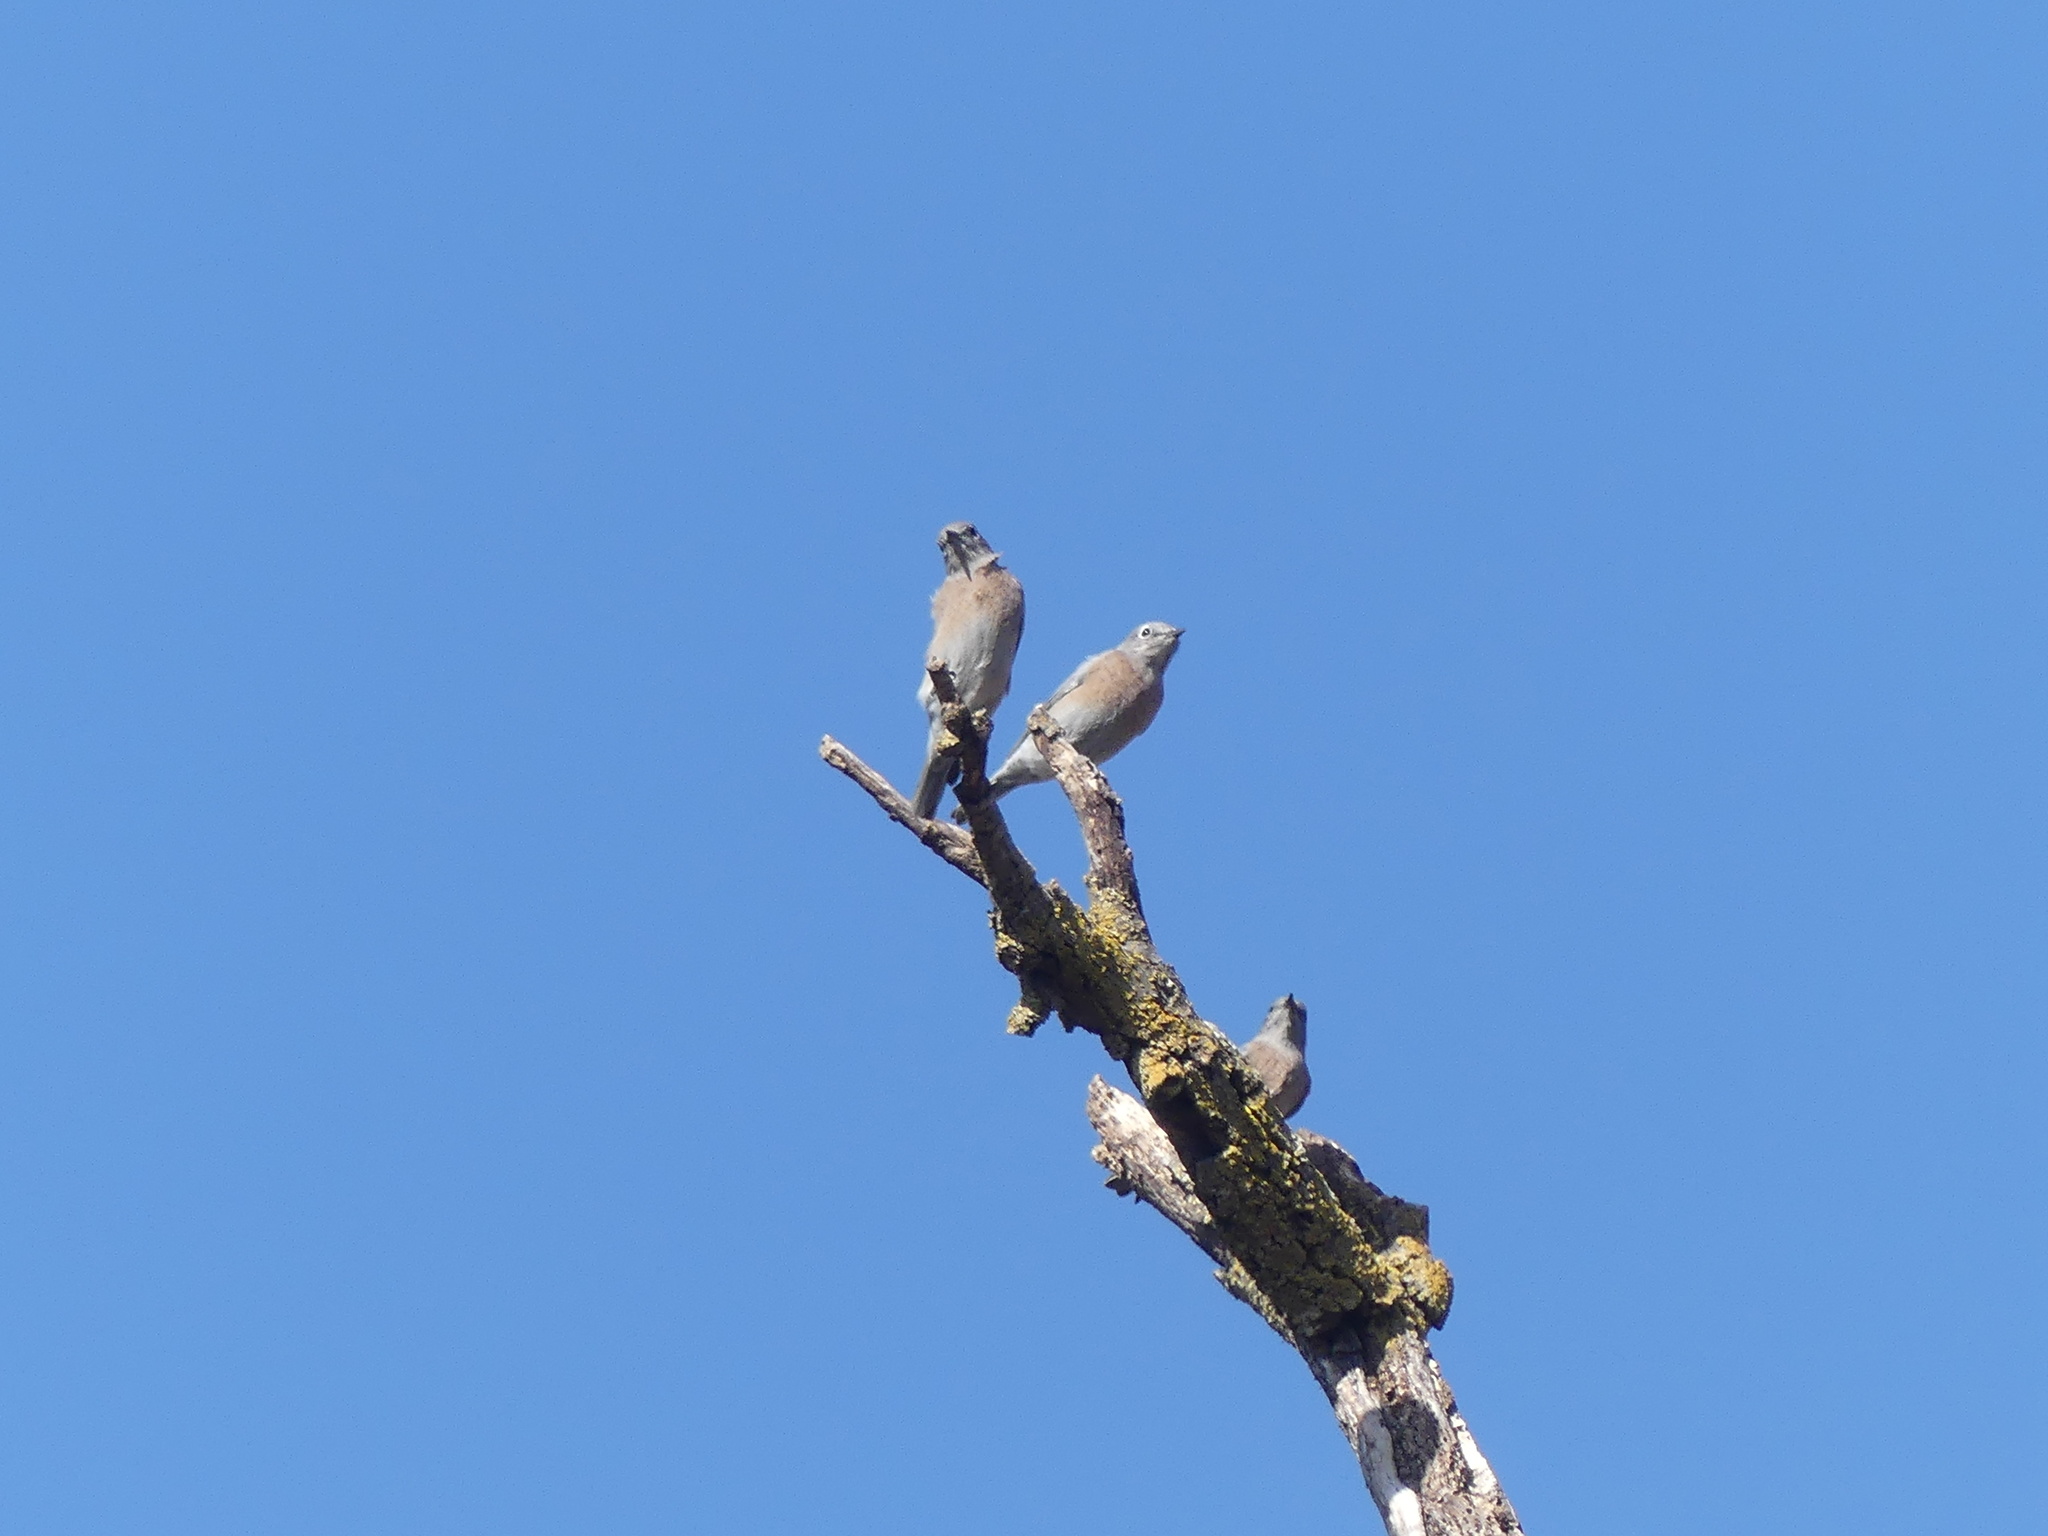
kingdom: Animalia
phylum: Chordata
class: Aves
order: Passeriformes
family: Turdidae
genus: Sialia
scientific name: Sialia mexicana
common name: Western bluebird
